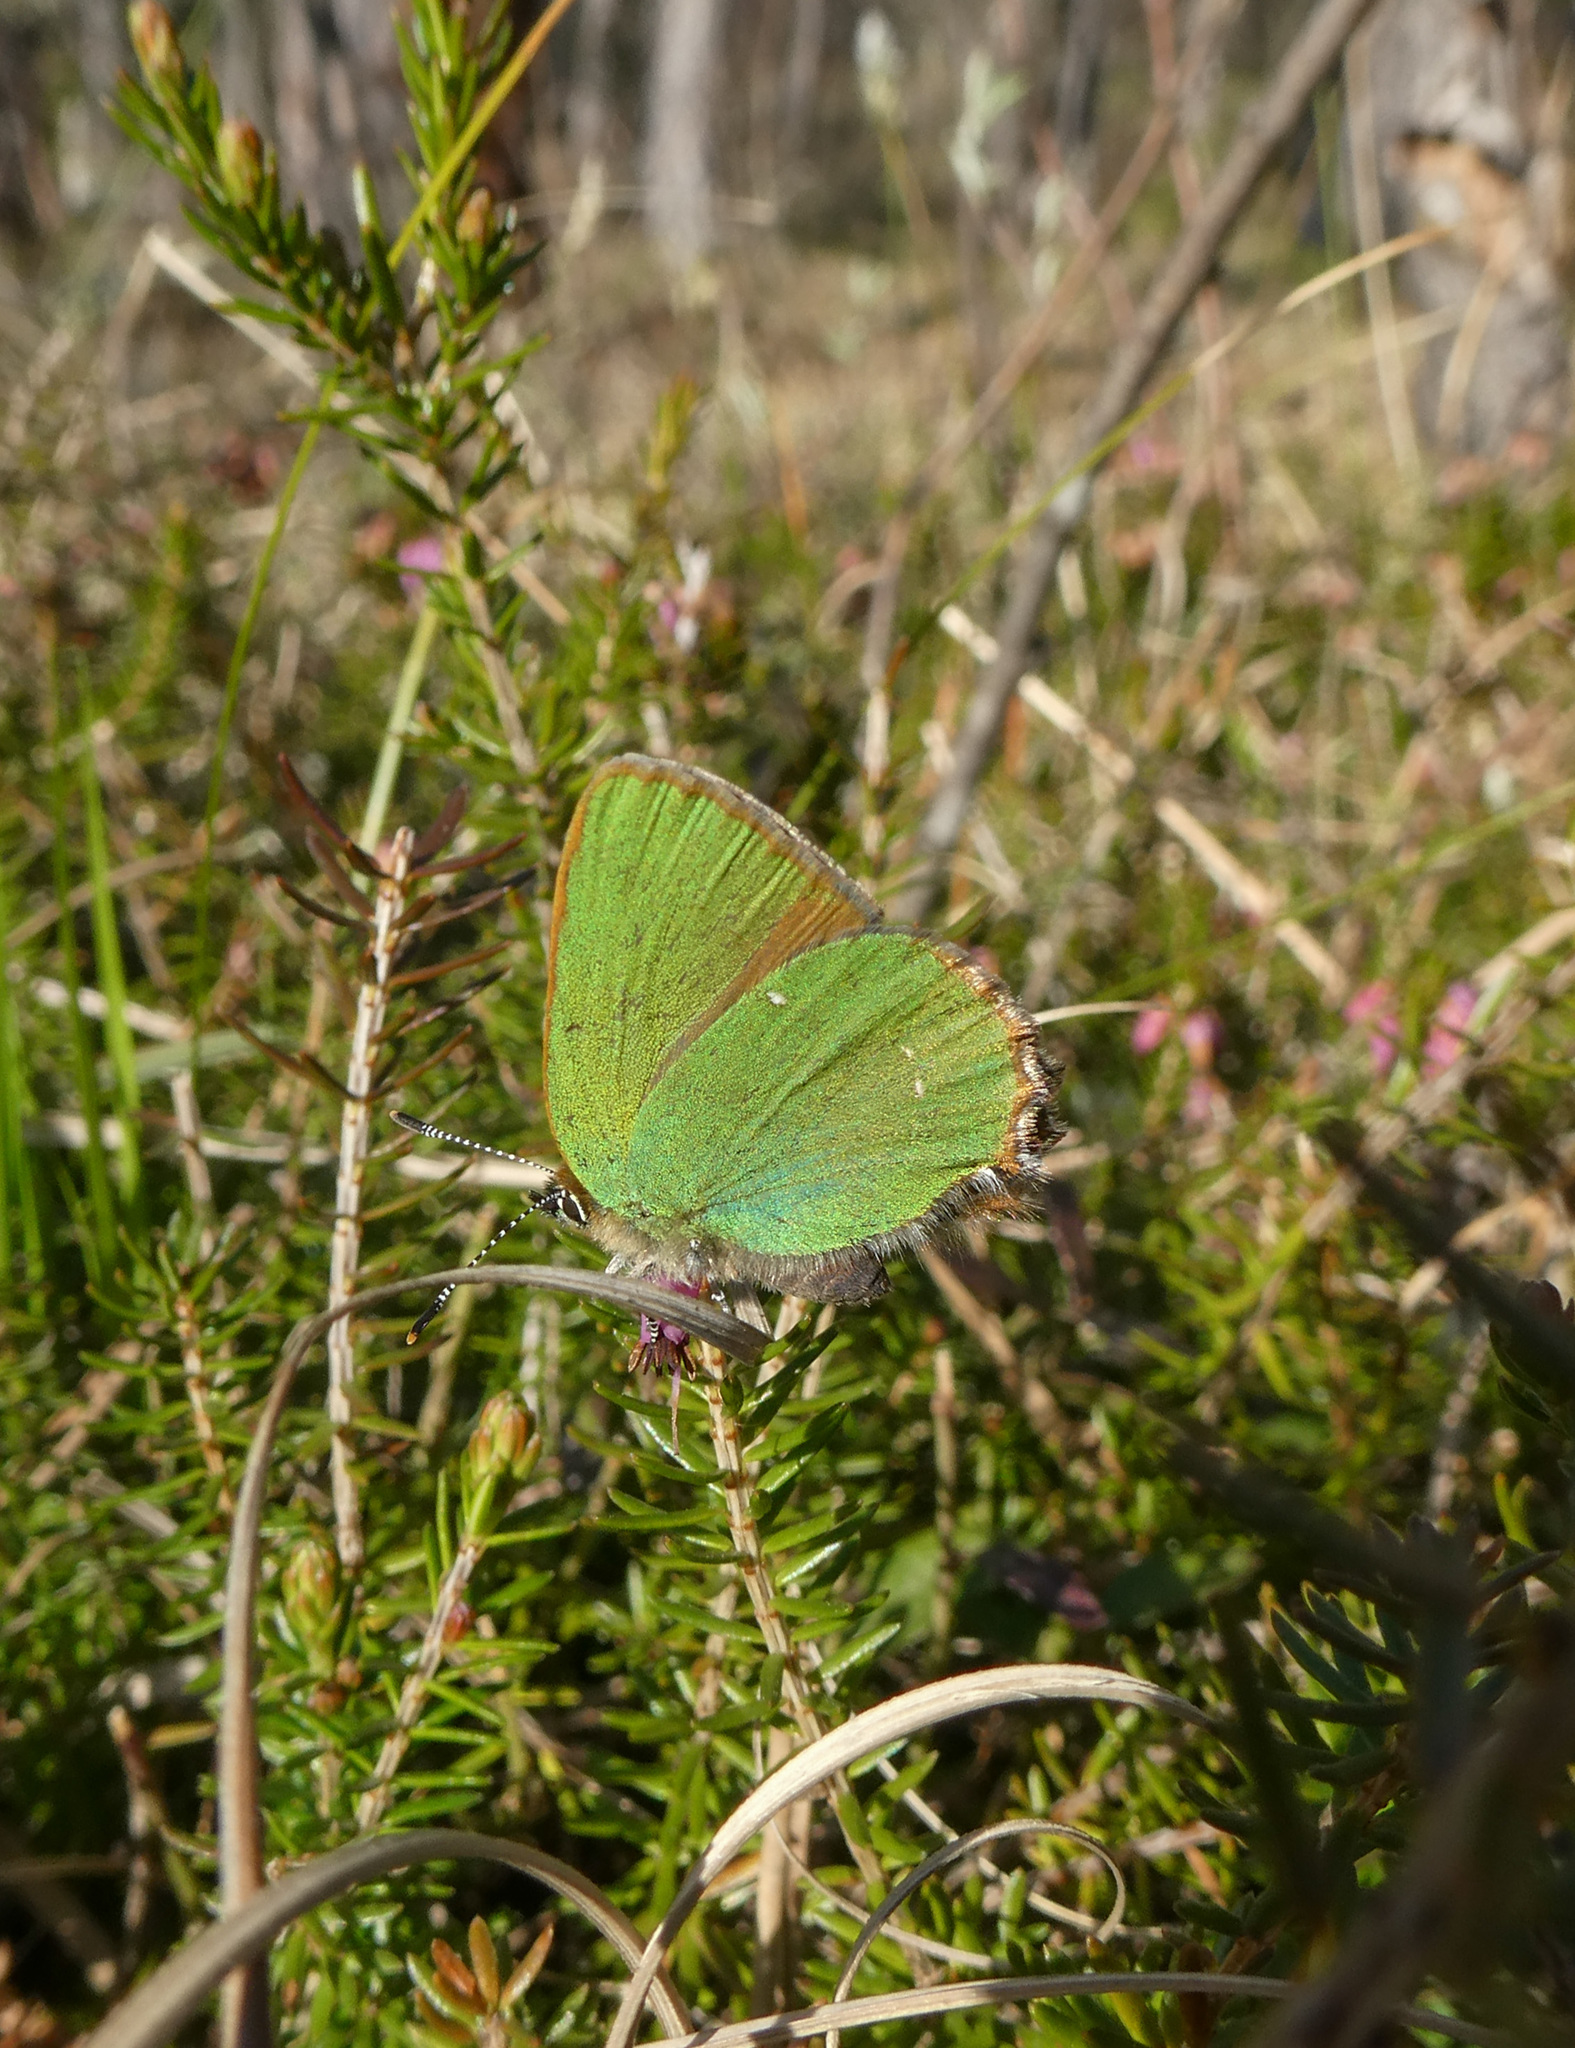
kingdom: Animalia
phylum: Arthropoda
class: Insecta
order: Lepidoptera
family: Lycaenidae
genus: Callophrys
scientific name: Callophrys rubi
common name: Green hairstreak
